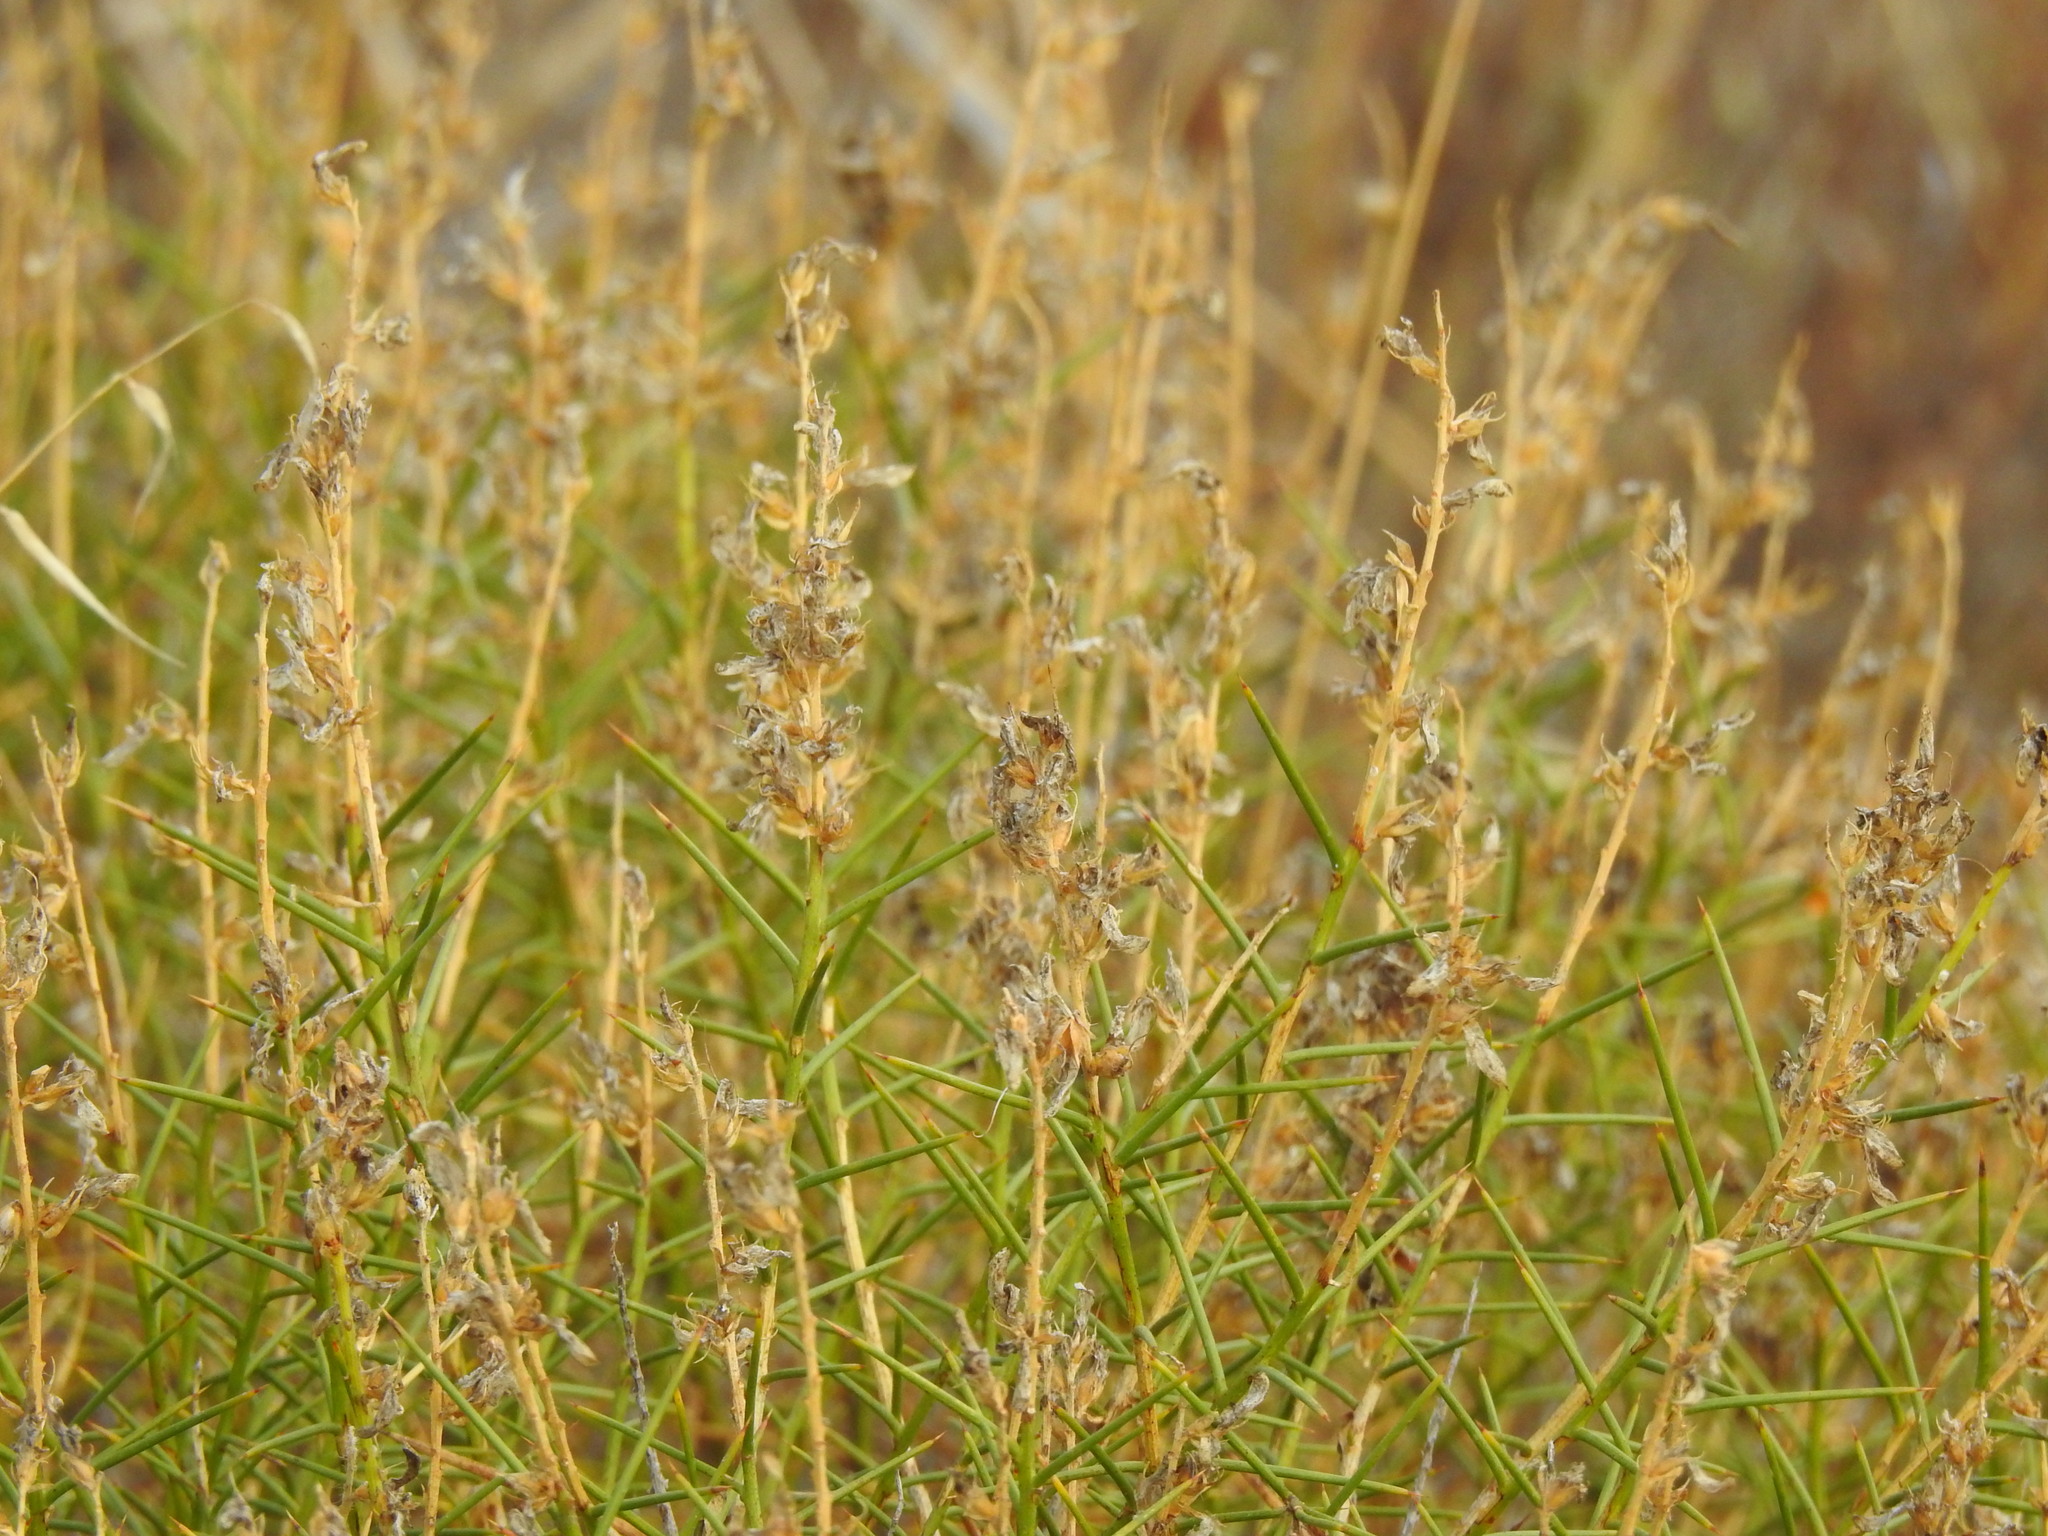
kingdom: Plantae
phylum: Tracheophyta
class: Magnoliopsida
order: Fabales
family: Fabaceae
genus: Genista
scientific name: Genista hirsuta
